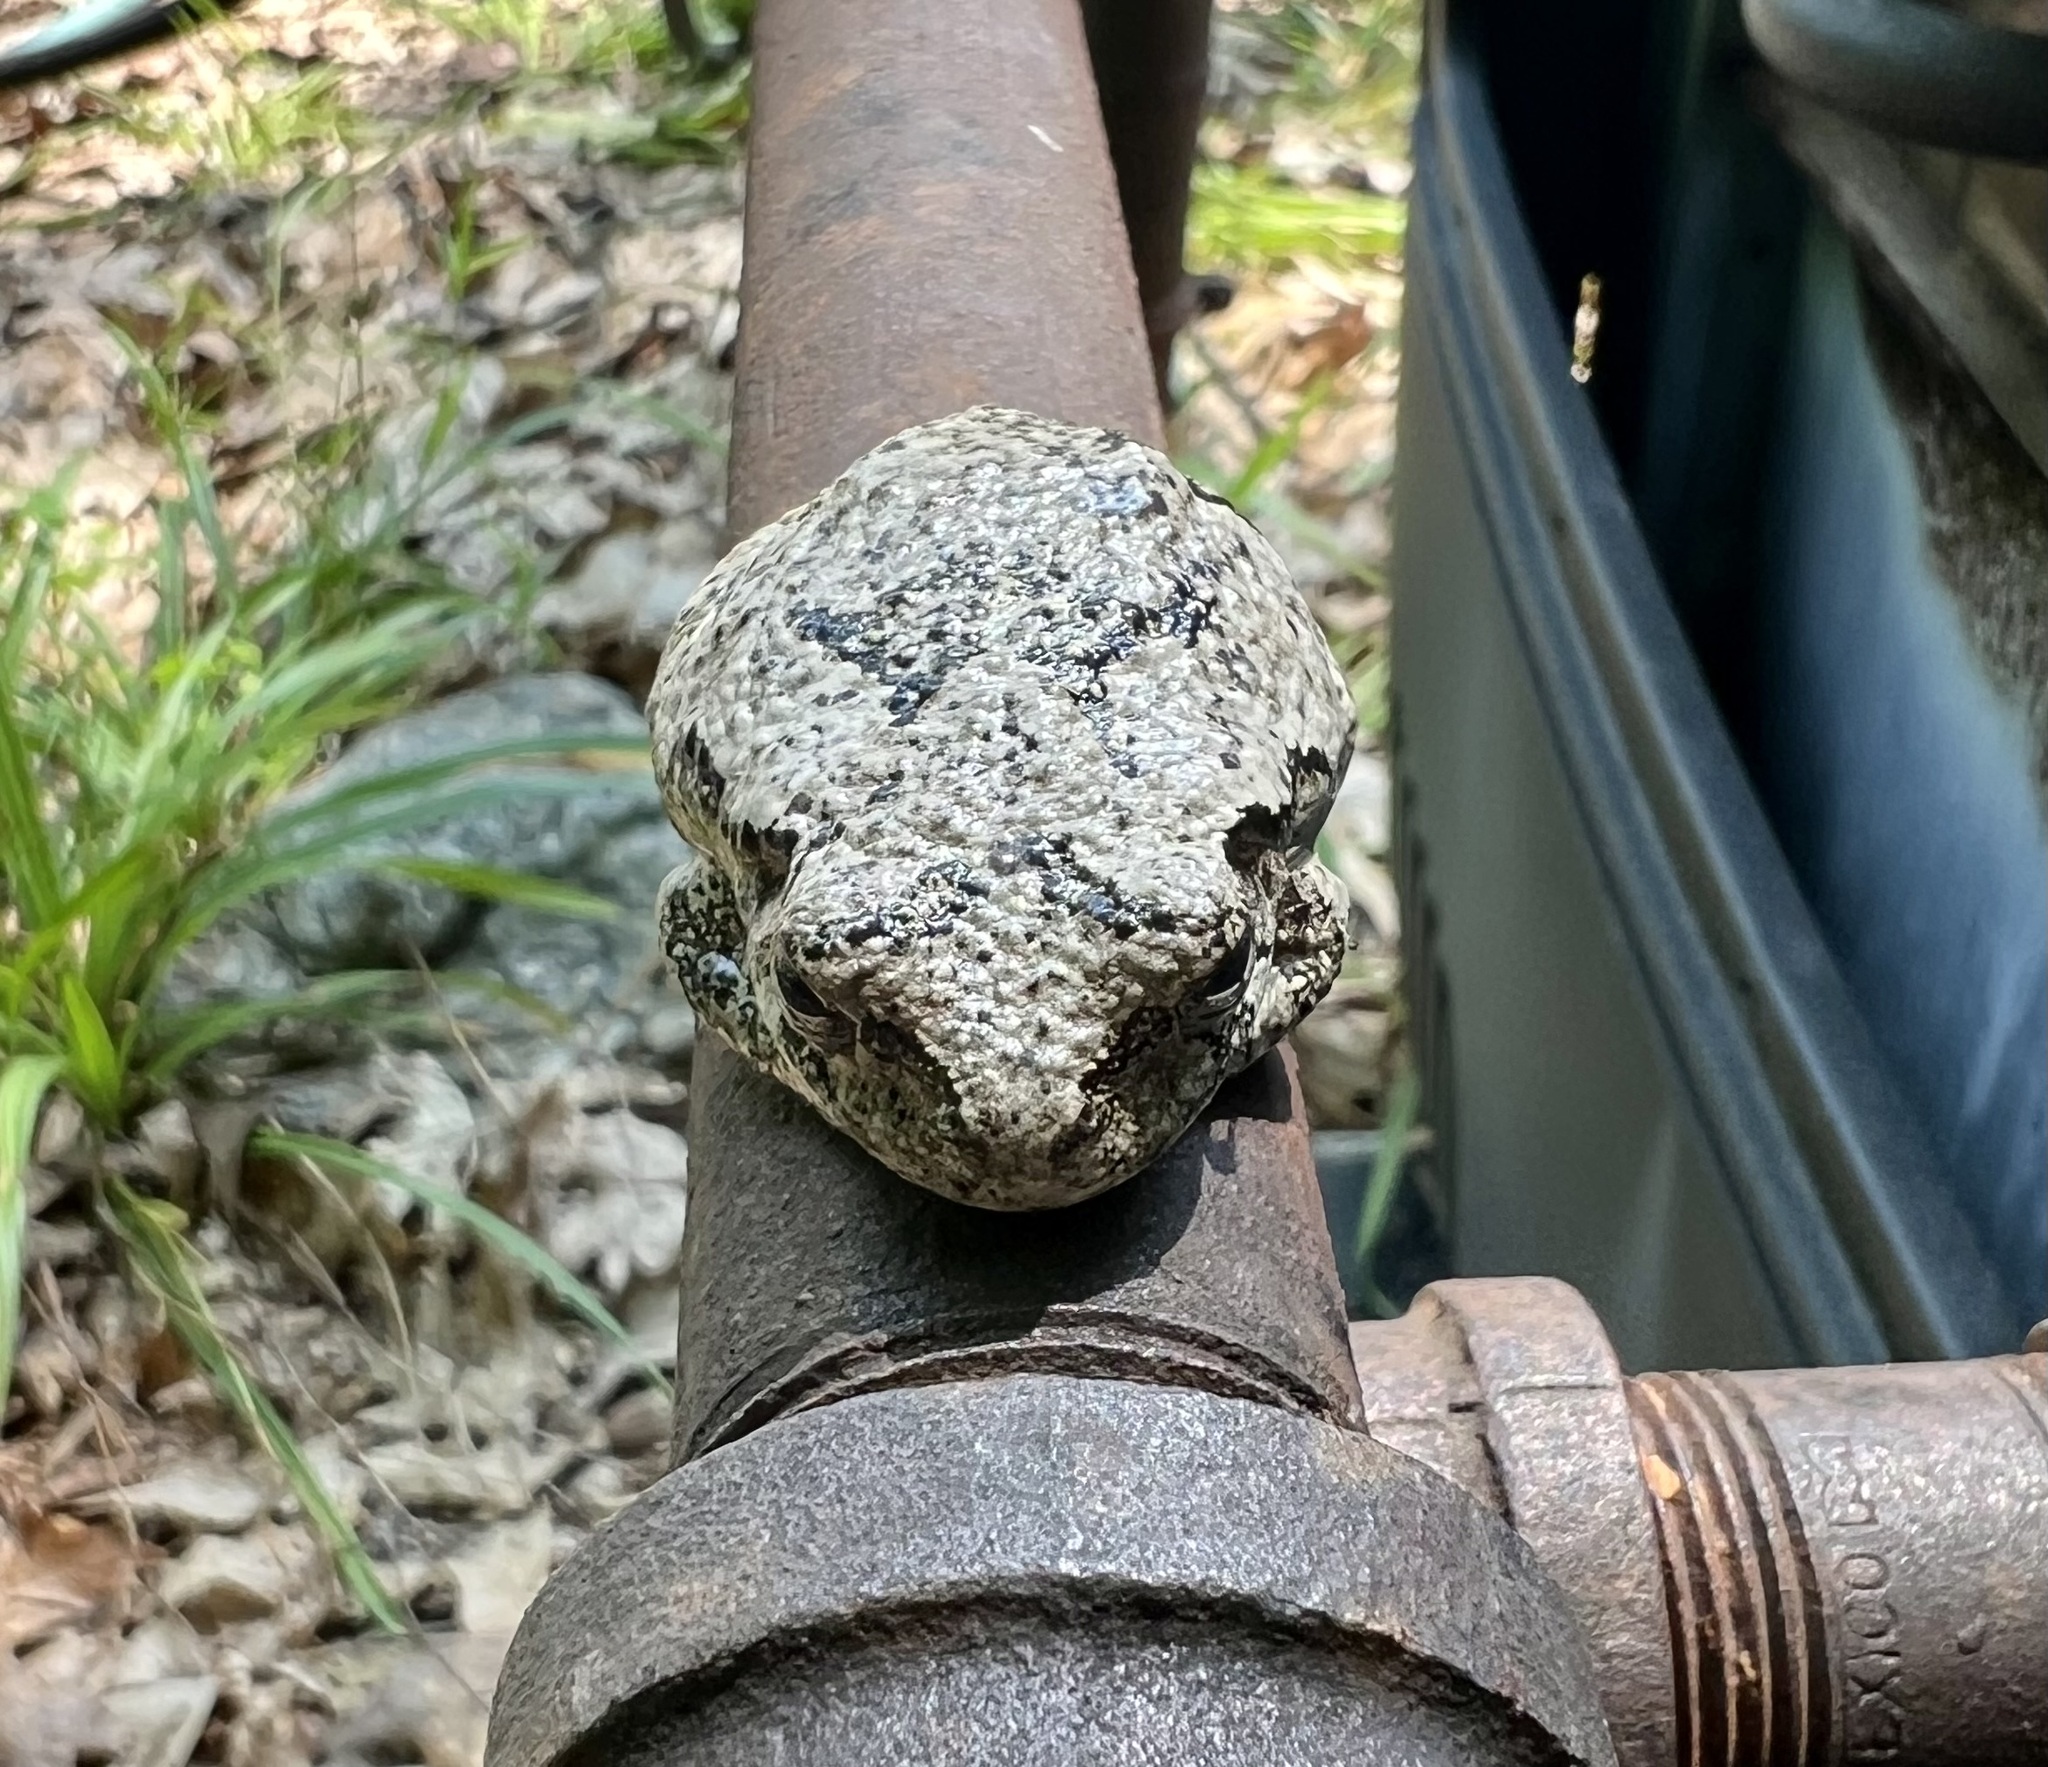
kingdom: Animalia
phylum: Chordata
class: Amphibia
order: Anura
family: Hylidae
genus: Dryophytes
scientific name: Dryophytes versicolor
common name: Gray treefrog
